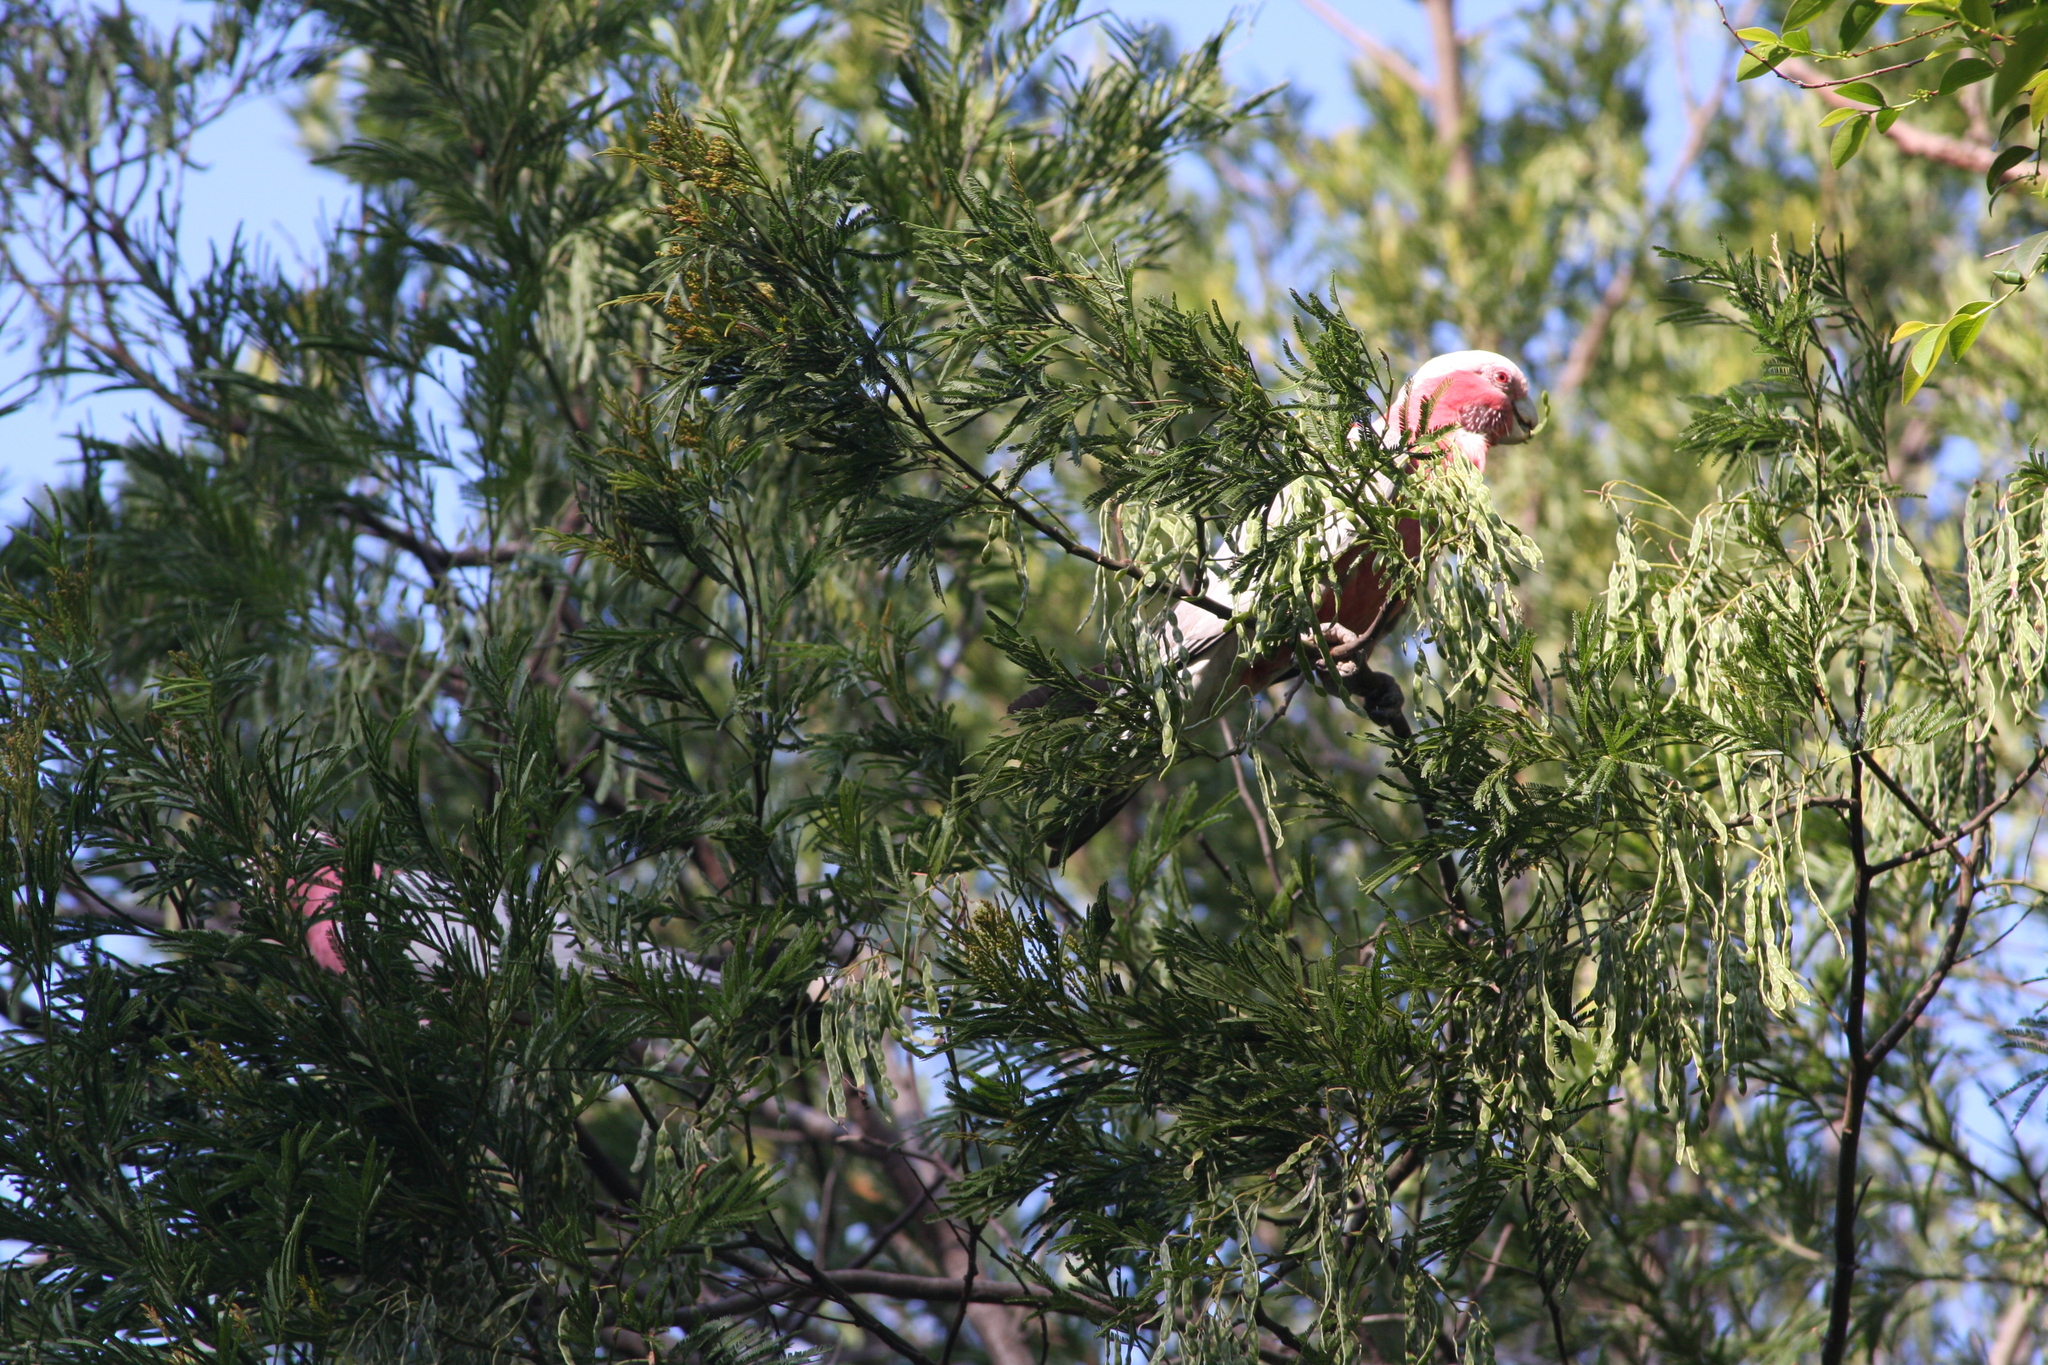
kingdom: Animalia
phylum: Chordata
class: Aves
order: Psittaciformes
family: Psittacidae
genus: Eolophus
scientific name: Eolophus roseicapilla
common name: Galah
